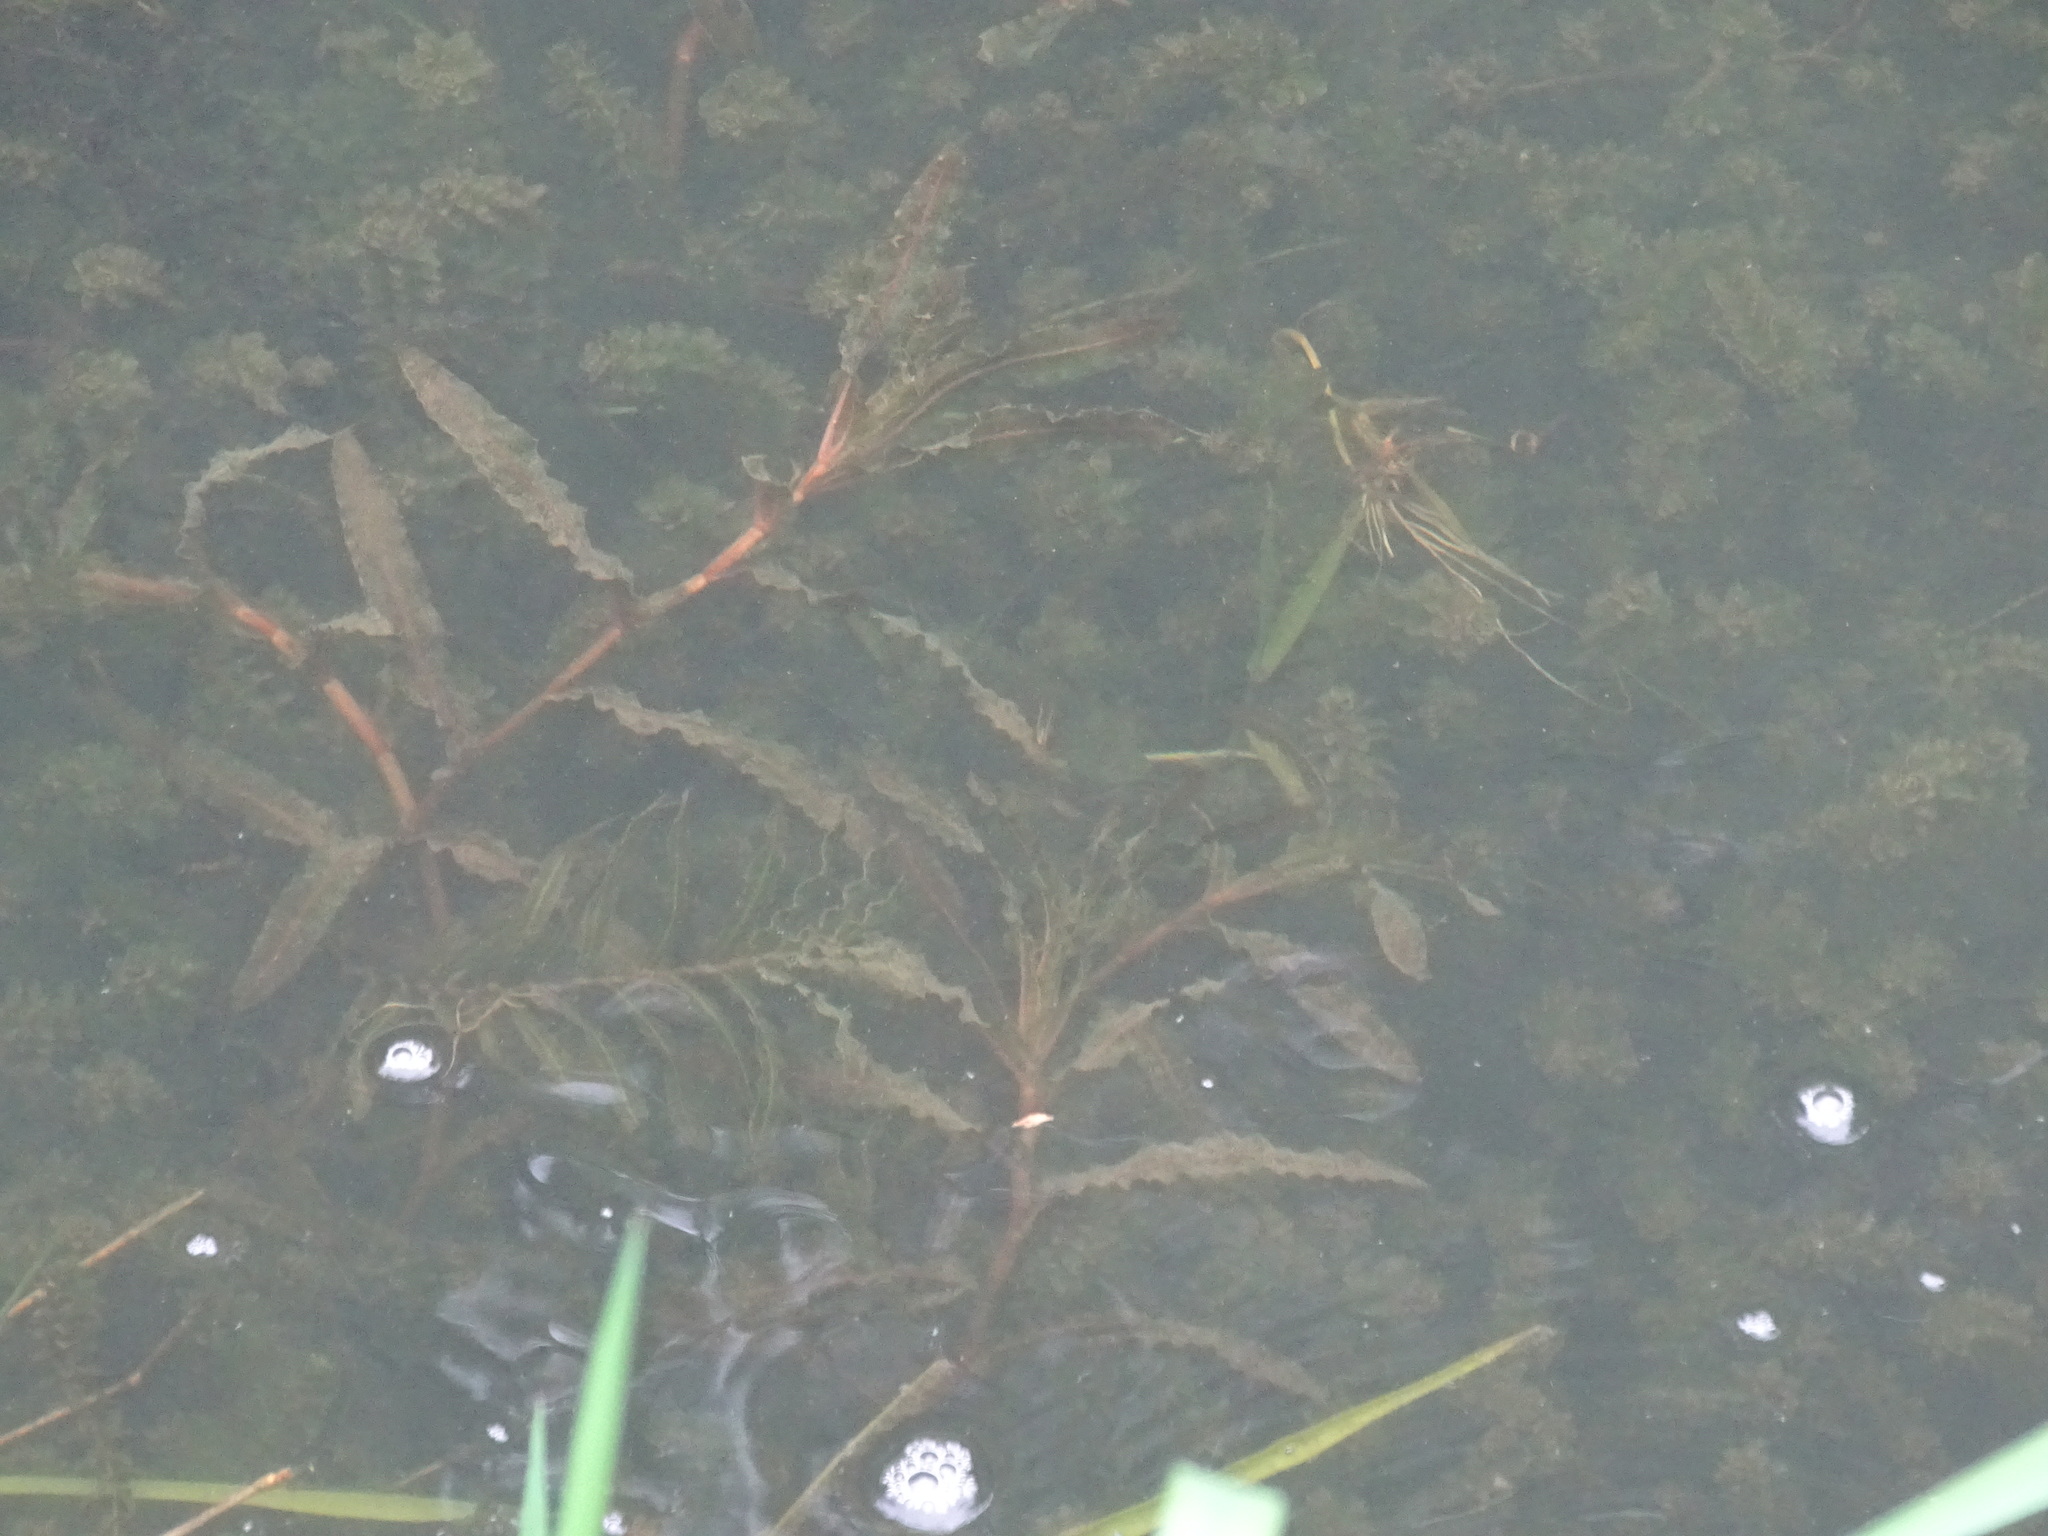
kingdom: Plantae
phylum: Tracheophyta
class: Liliopsida
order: Alismatales
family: Potamogetonaceae
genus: Potamogeton
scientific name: Potamogeton crispus
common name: Curled pondweed
